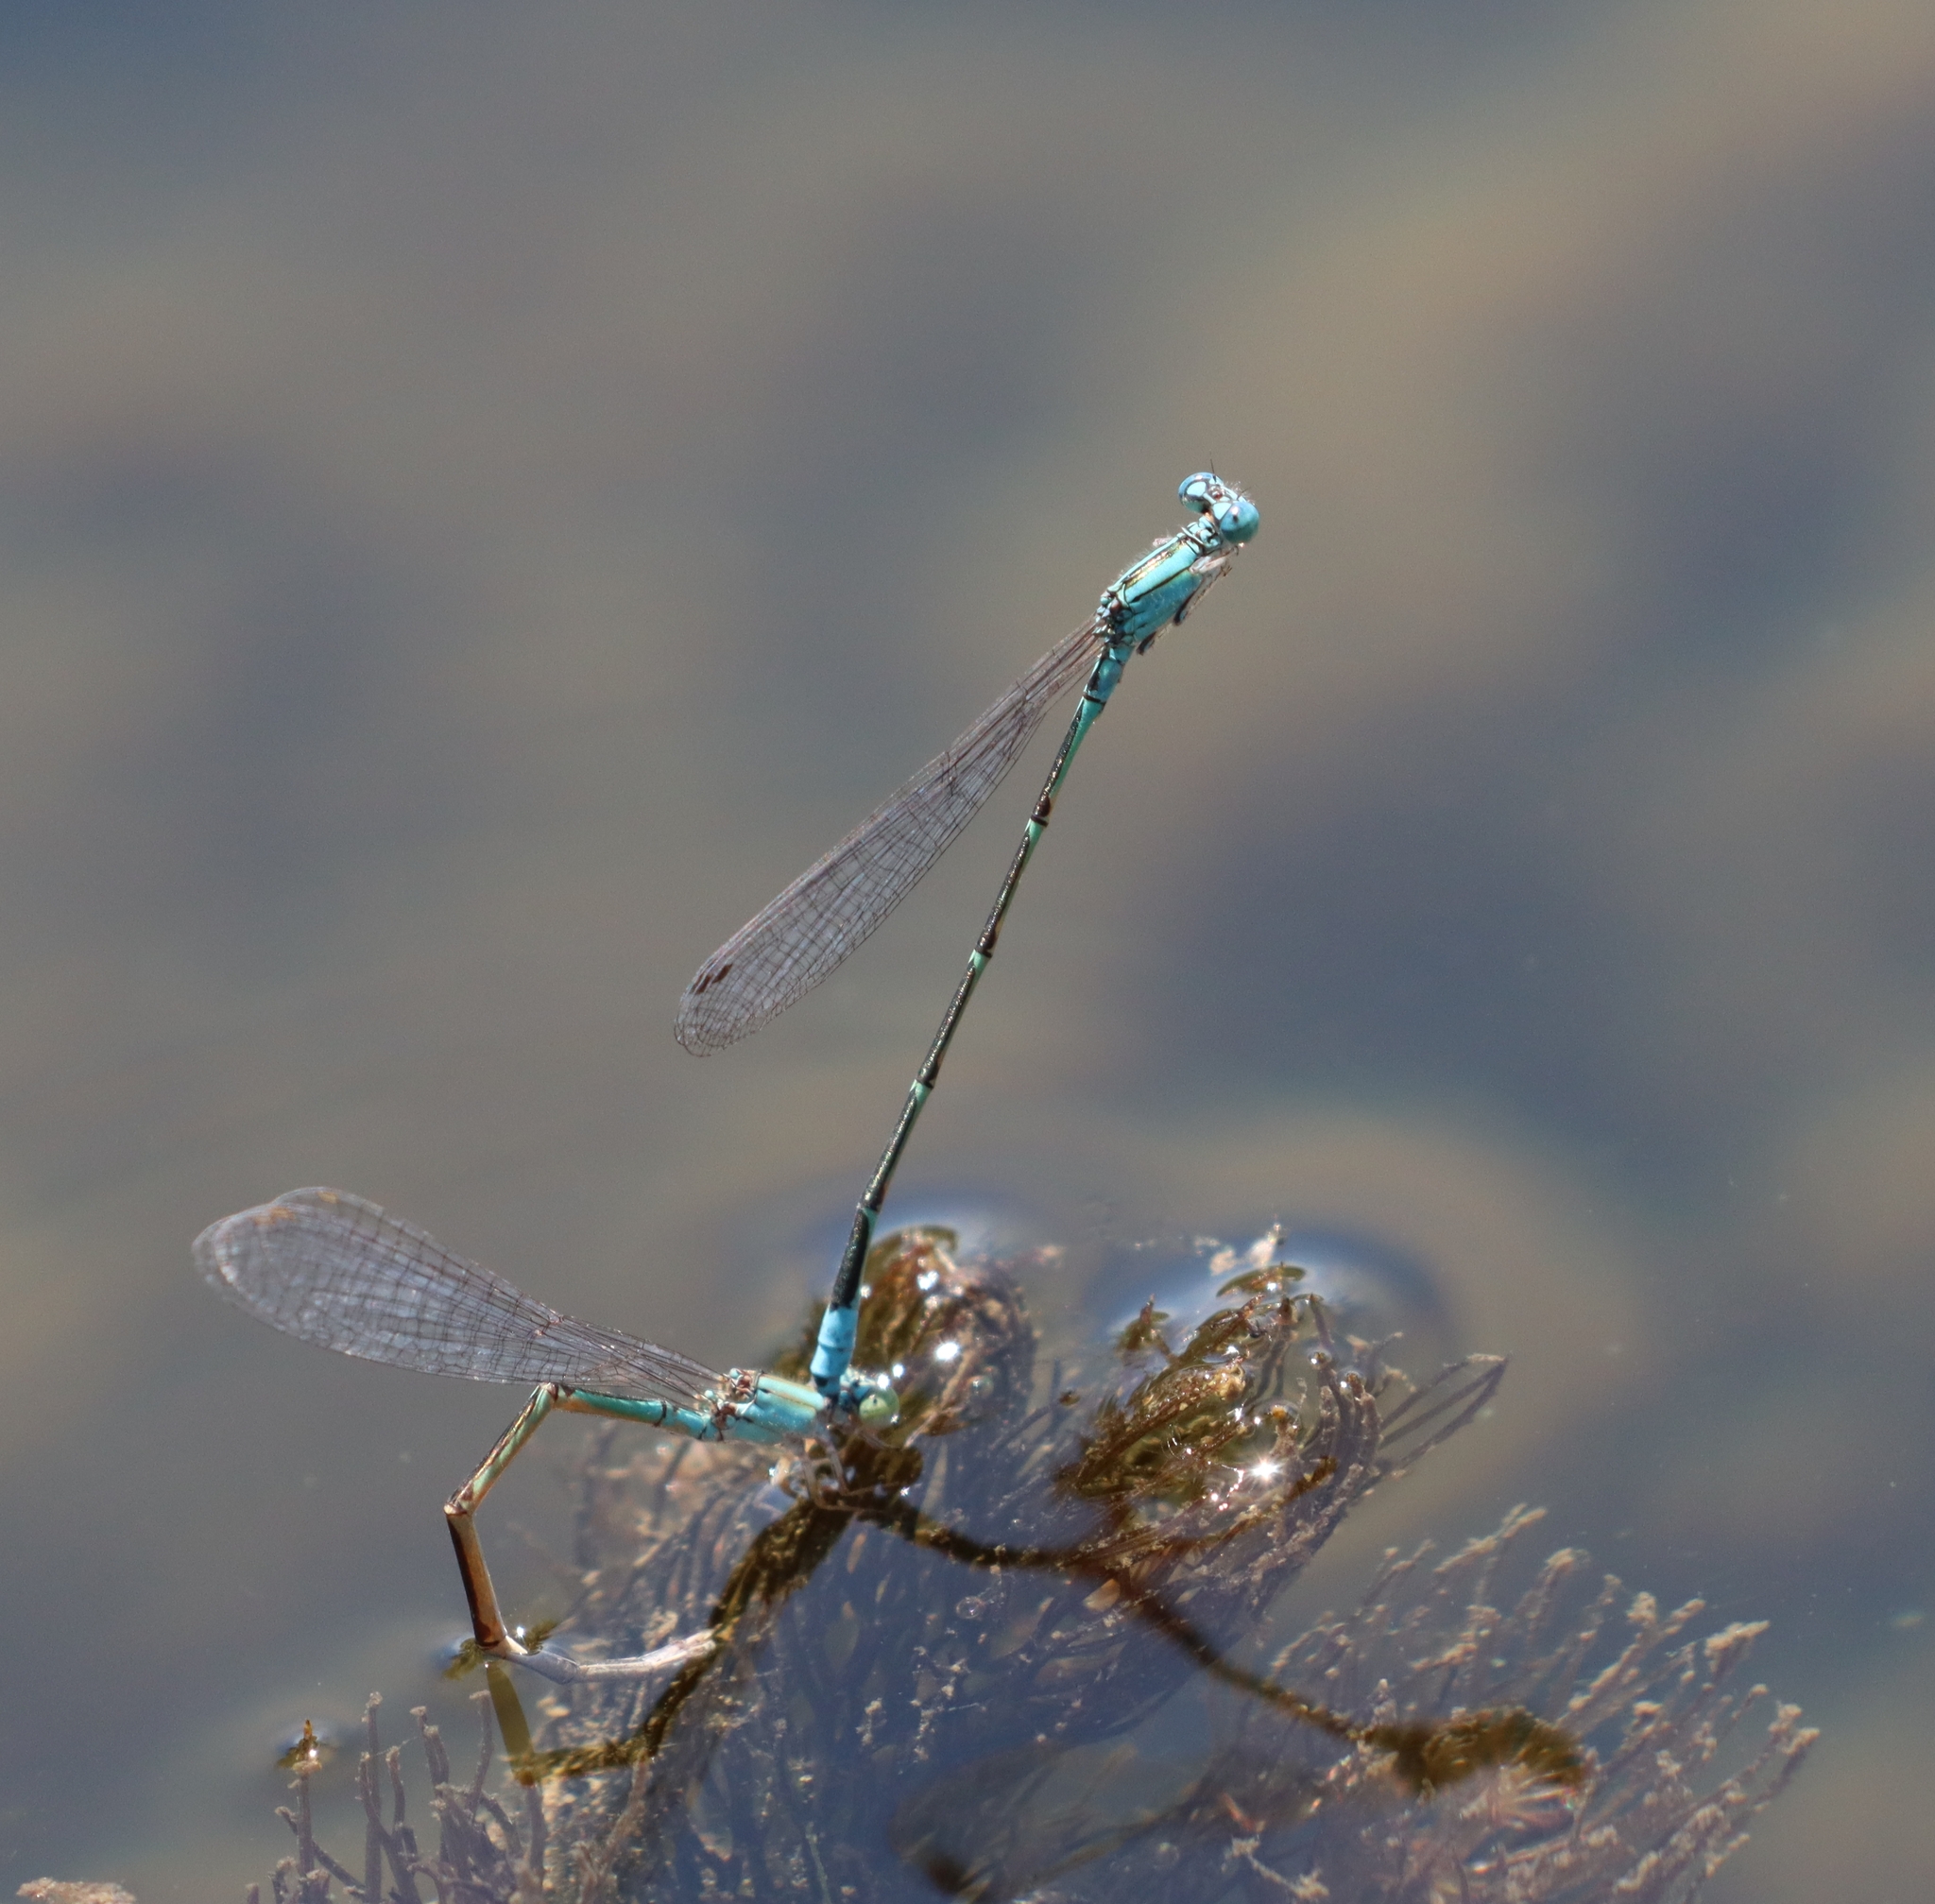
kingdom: Animalia
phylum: Arthropoda
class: Insecta
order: Odonata
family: Coenagrionidae
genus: Enallagma
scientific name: Enallagma traviatum
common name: Slender bluet
